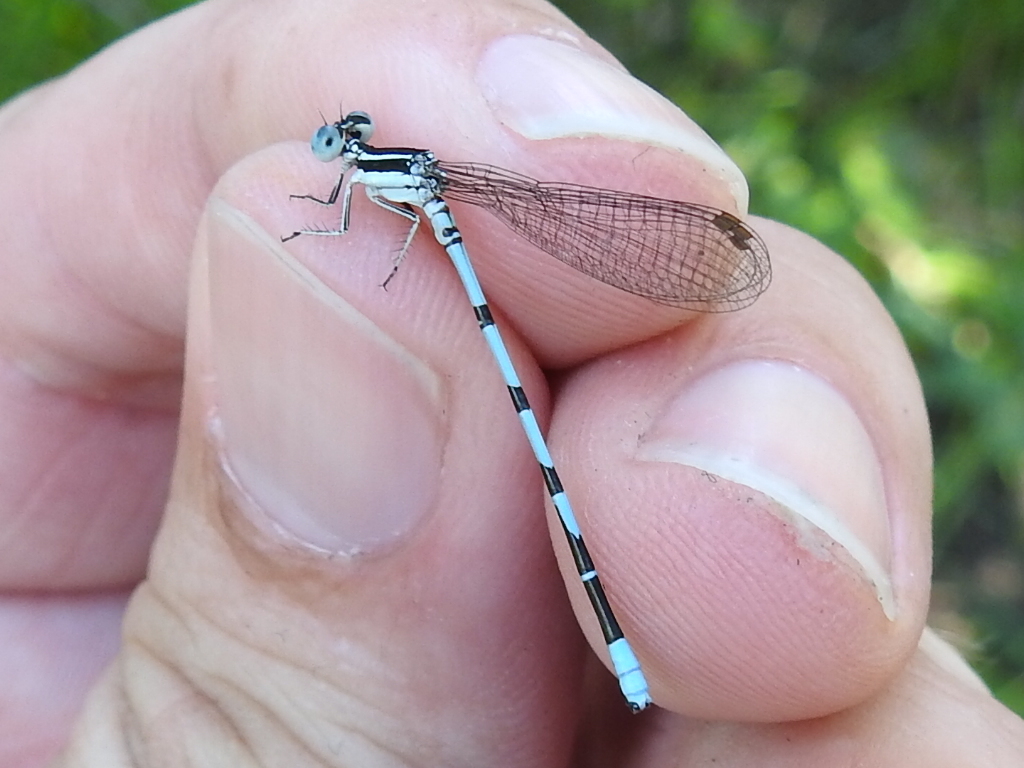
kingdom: Animalia
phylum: Arthropoda
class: Insecta
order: Odonata
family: Coenagrionidae
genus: Argia
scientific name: Argia bipunctulata
